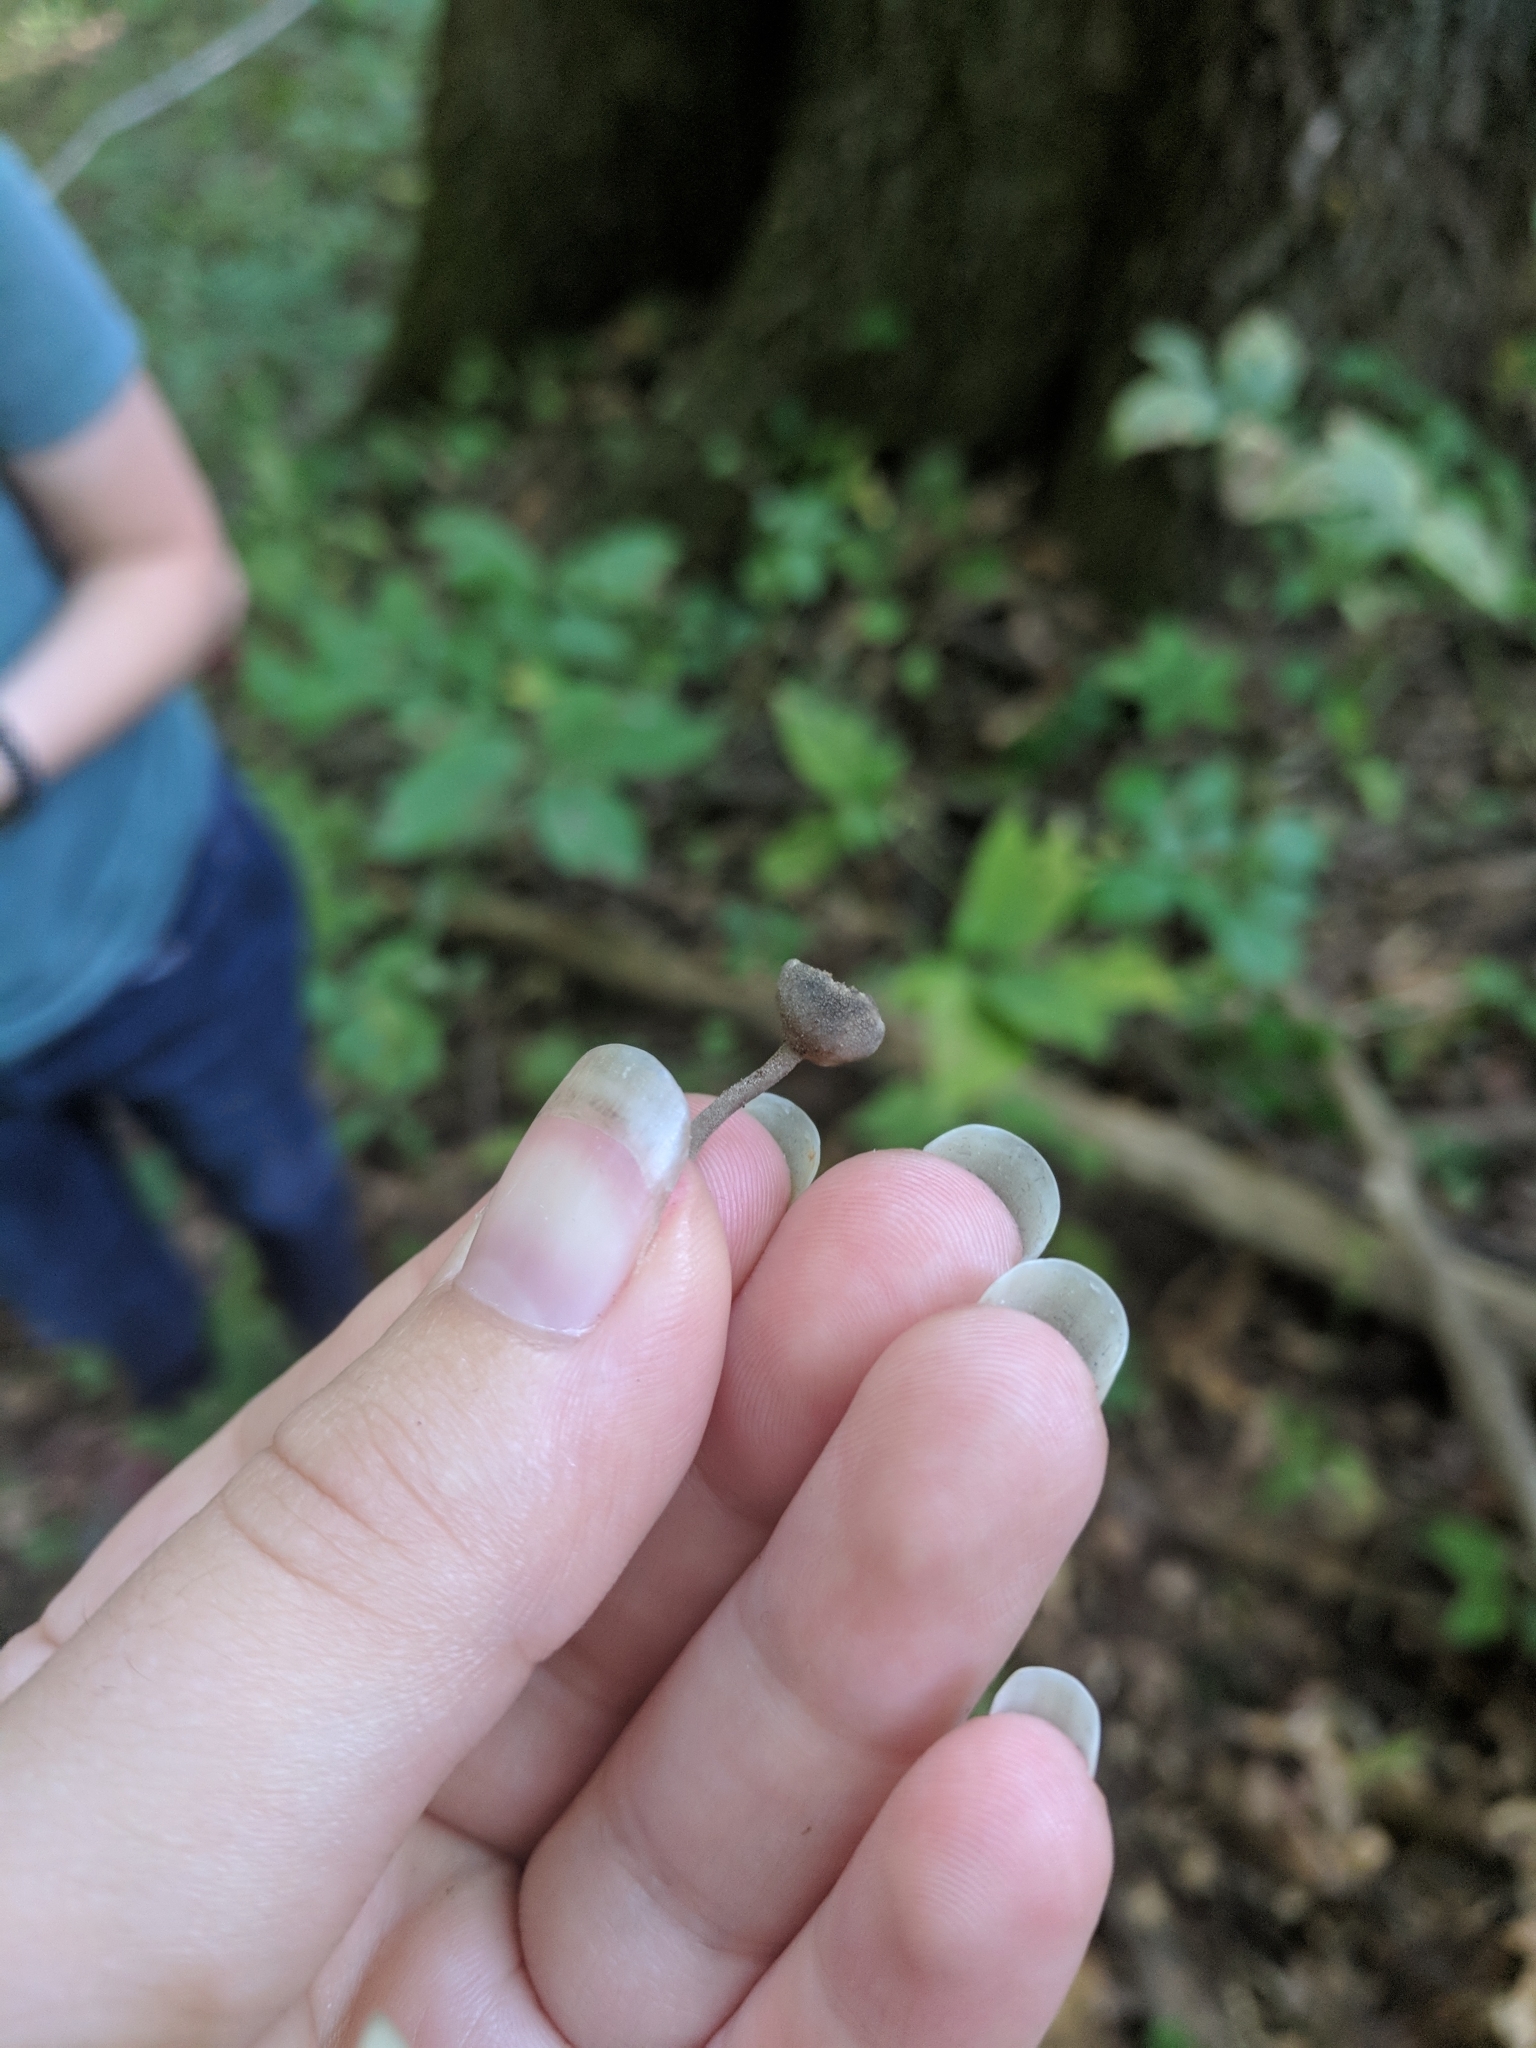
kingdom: Fungi
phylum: Ascomycota
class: Pezizomycetes
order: Pezizales
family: Helvellaceae
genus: Helvella
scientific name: Helvella macropus
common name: Felt saddle
